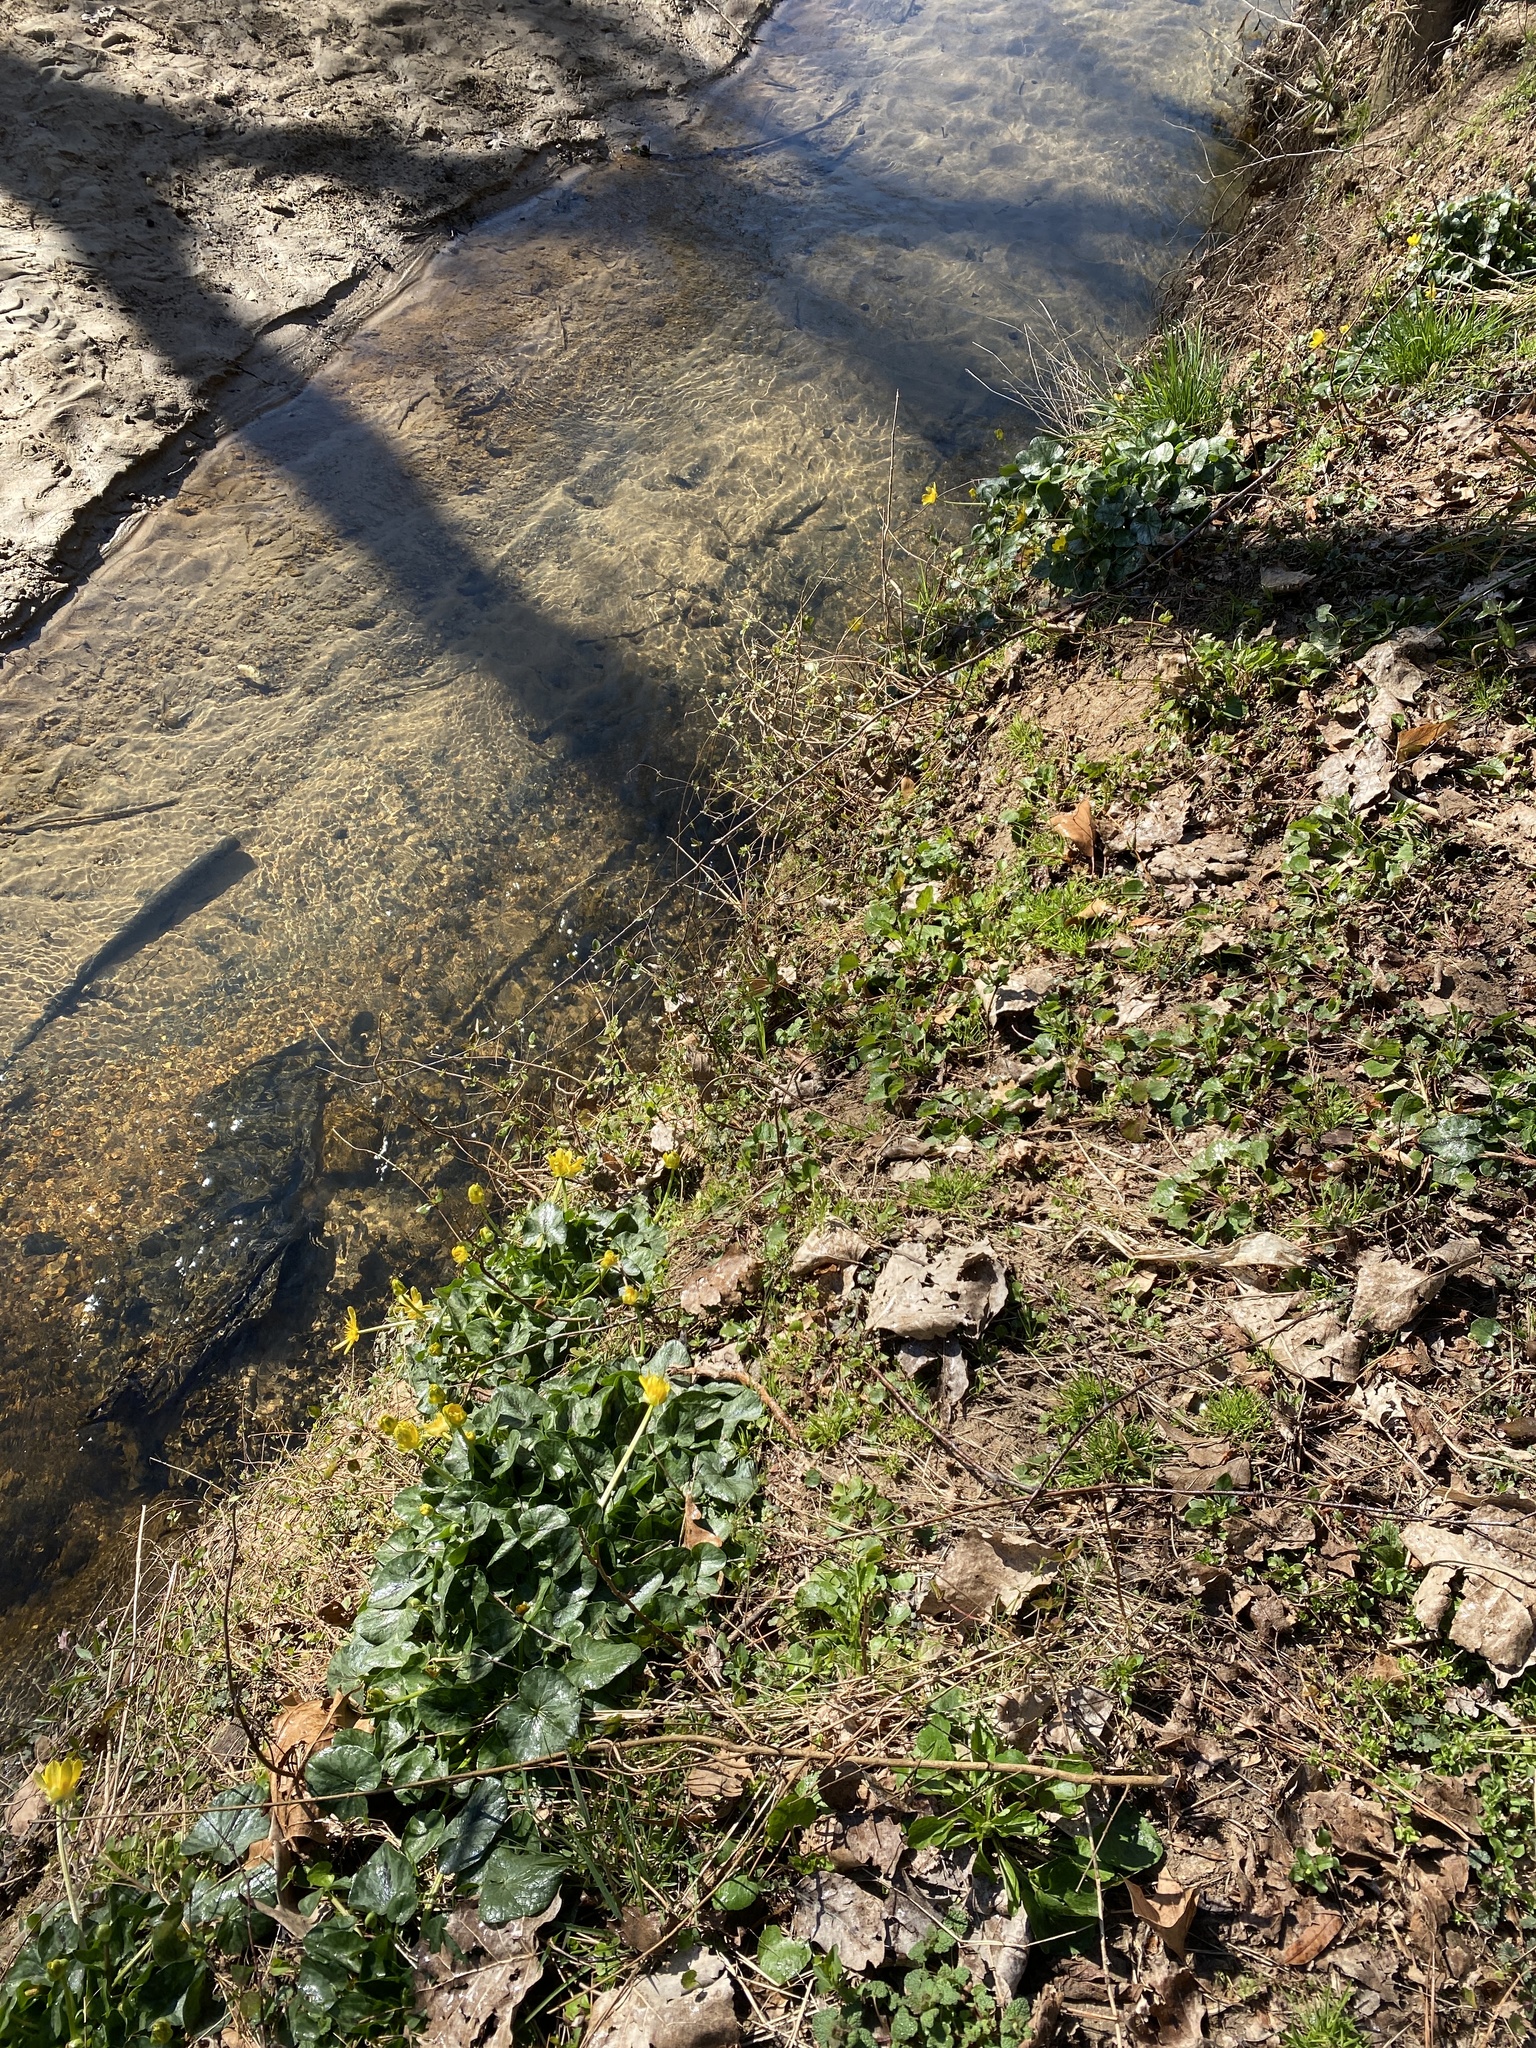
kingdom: Plantae
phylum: Tracheophyta
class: Magnoliopsida
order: Ranunculales
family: Ranunculaceae
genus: Ficaria
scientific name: Ficaria verna
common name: Lesser celandine
